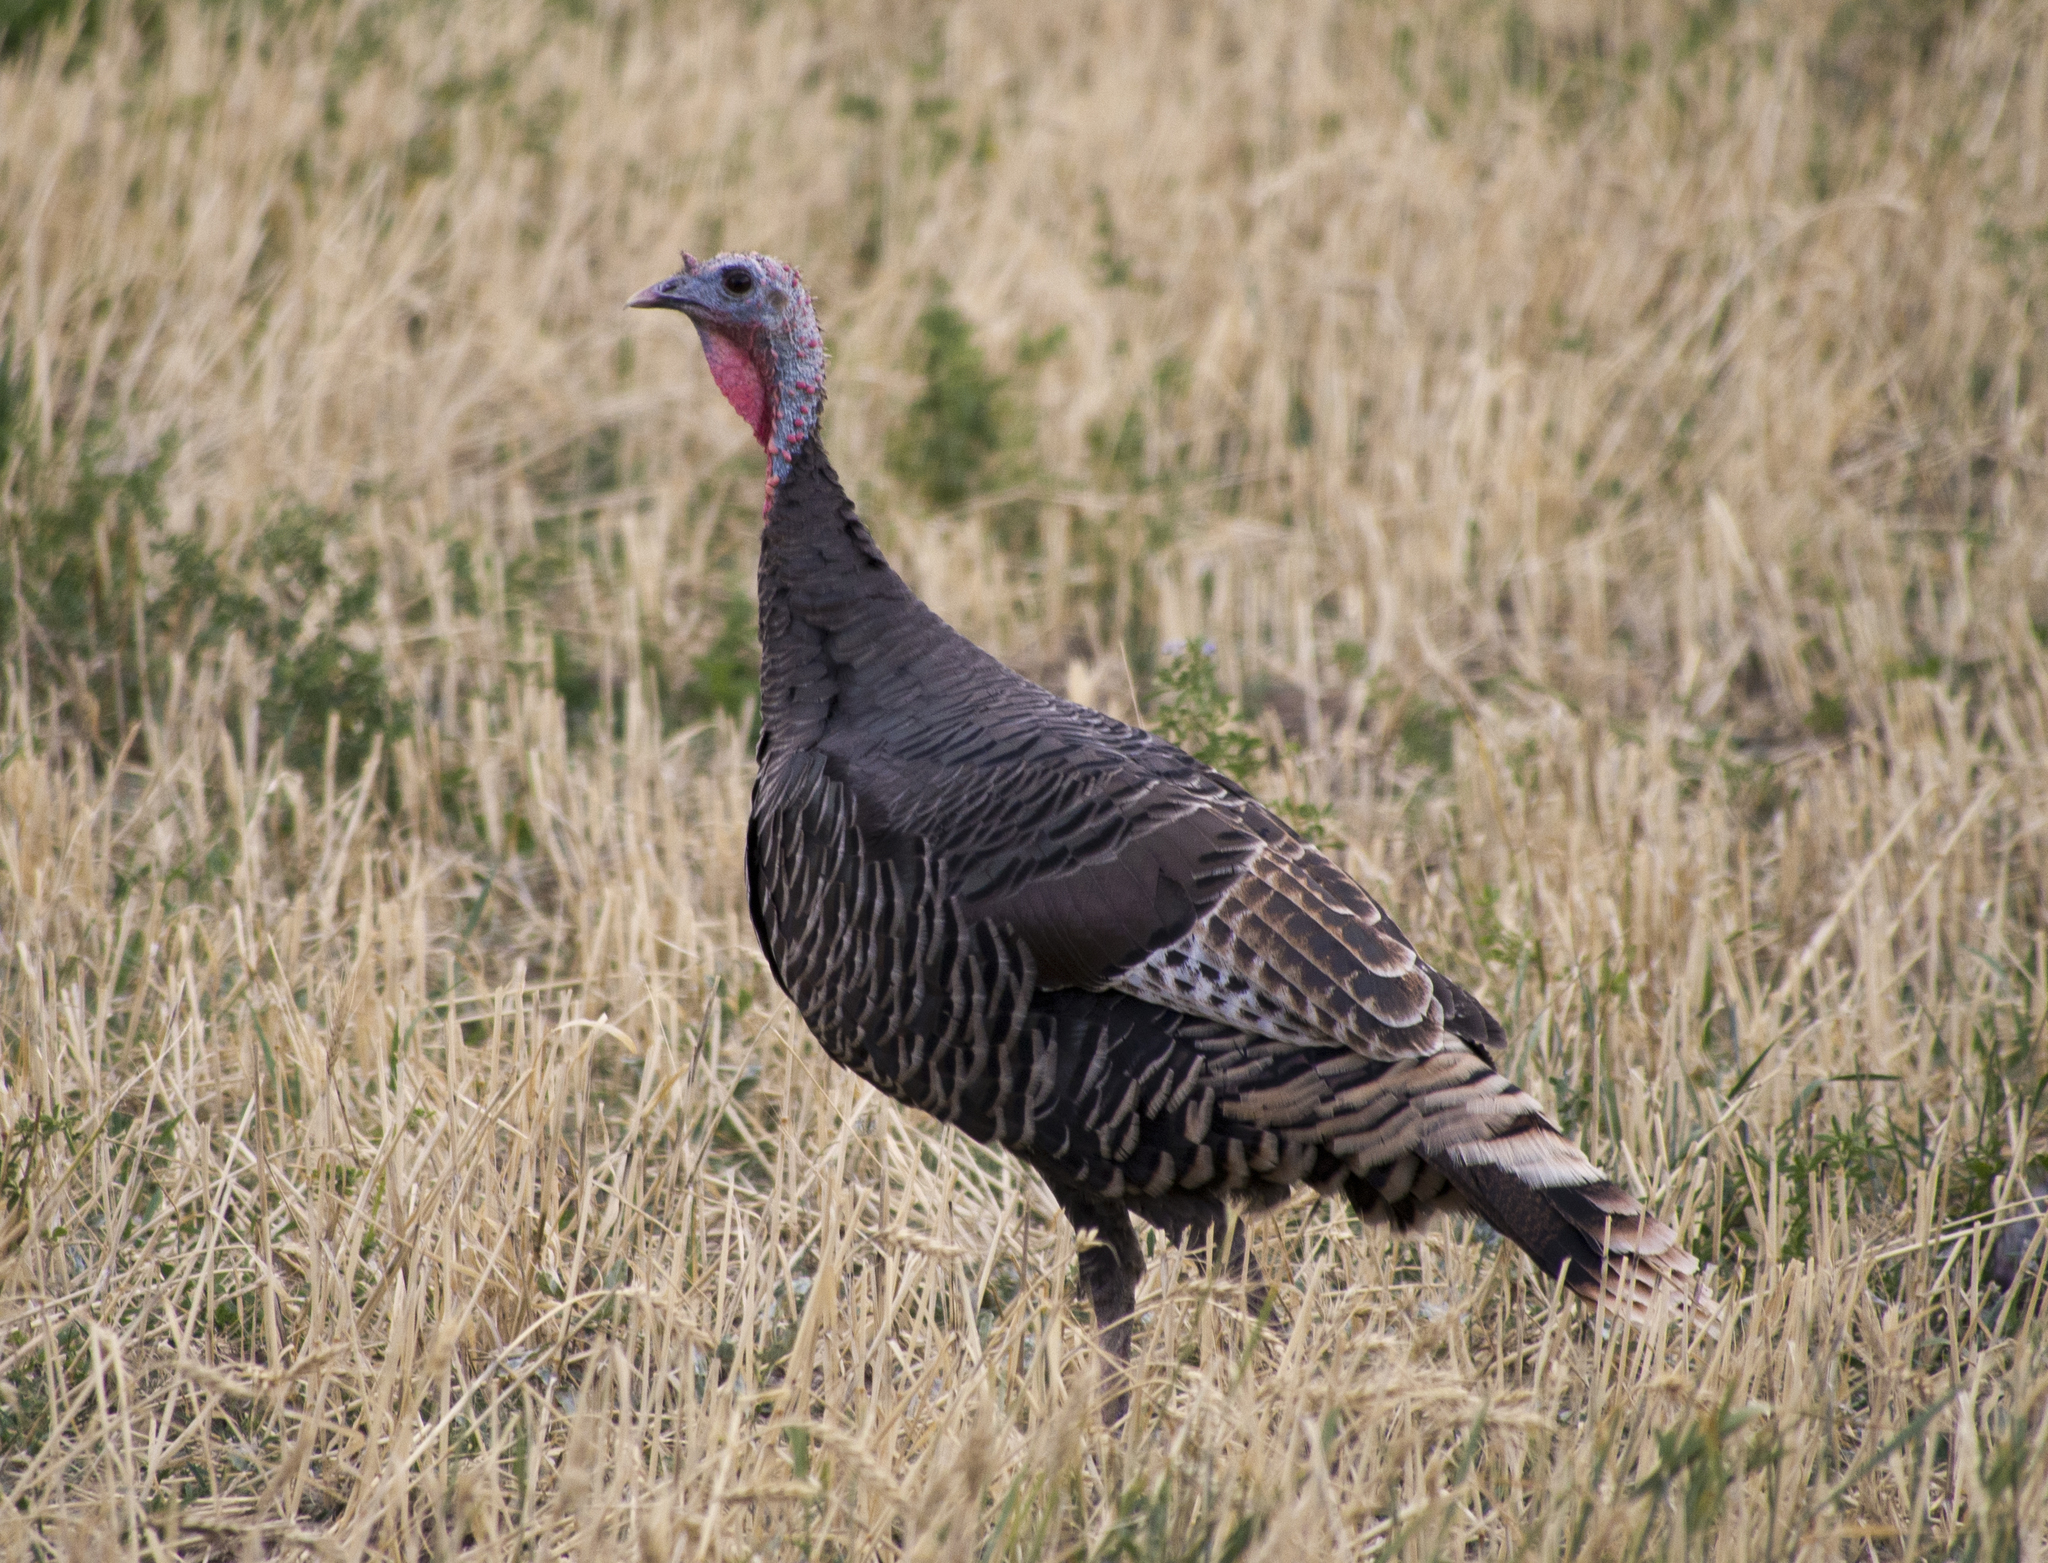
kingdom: Animalia
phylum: Chordata
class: Aves
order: Galliformes
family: Phasianidae
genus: Meleagris
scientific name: Meleagris gallopavo
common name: Wild turkey
